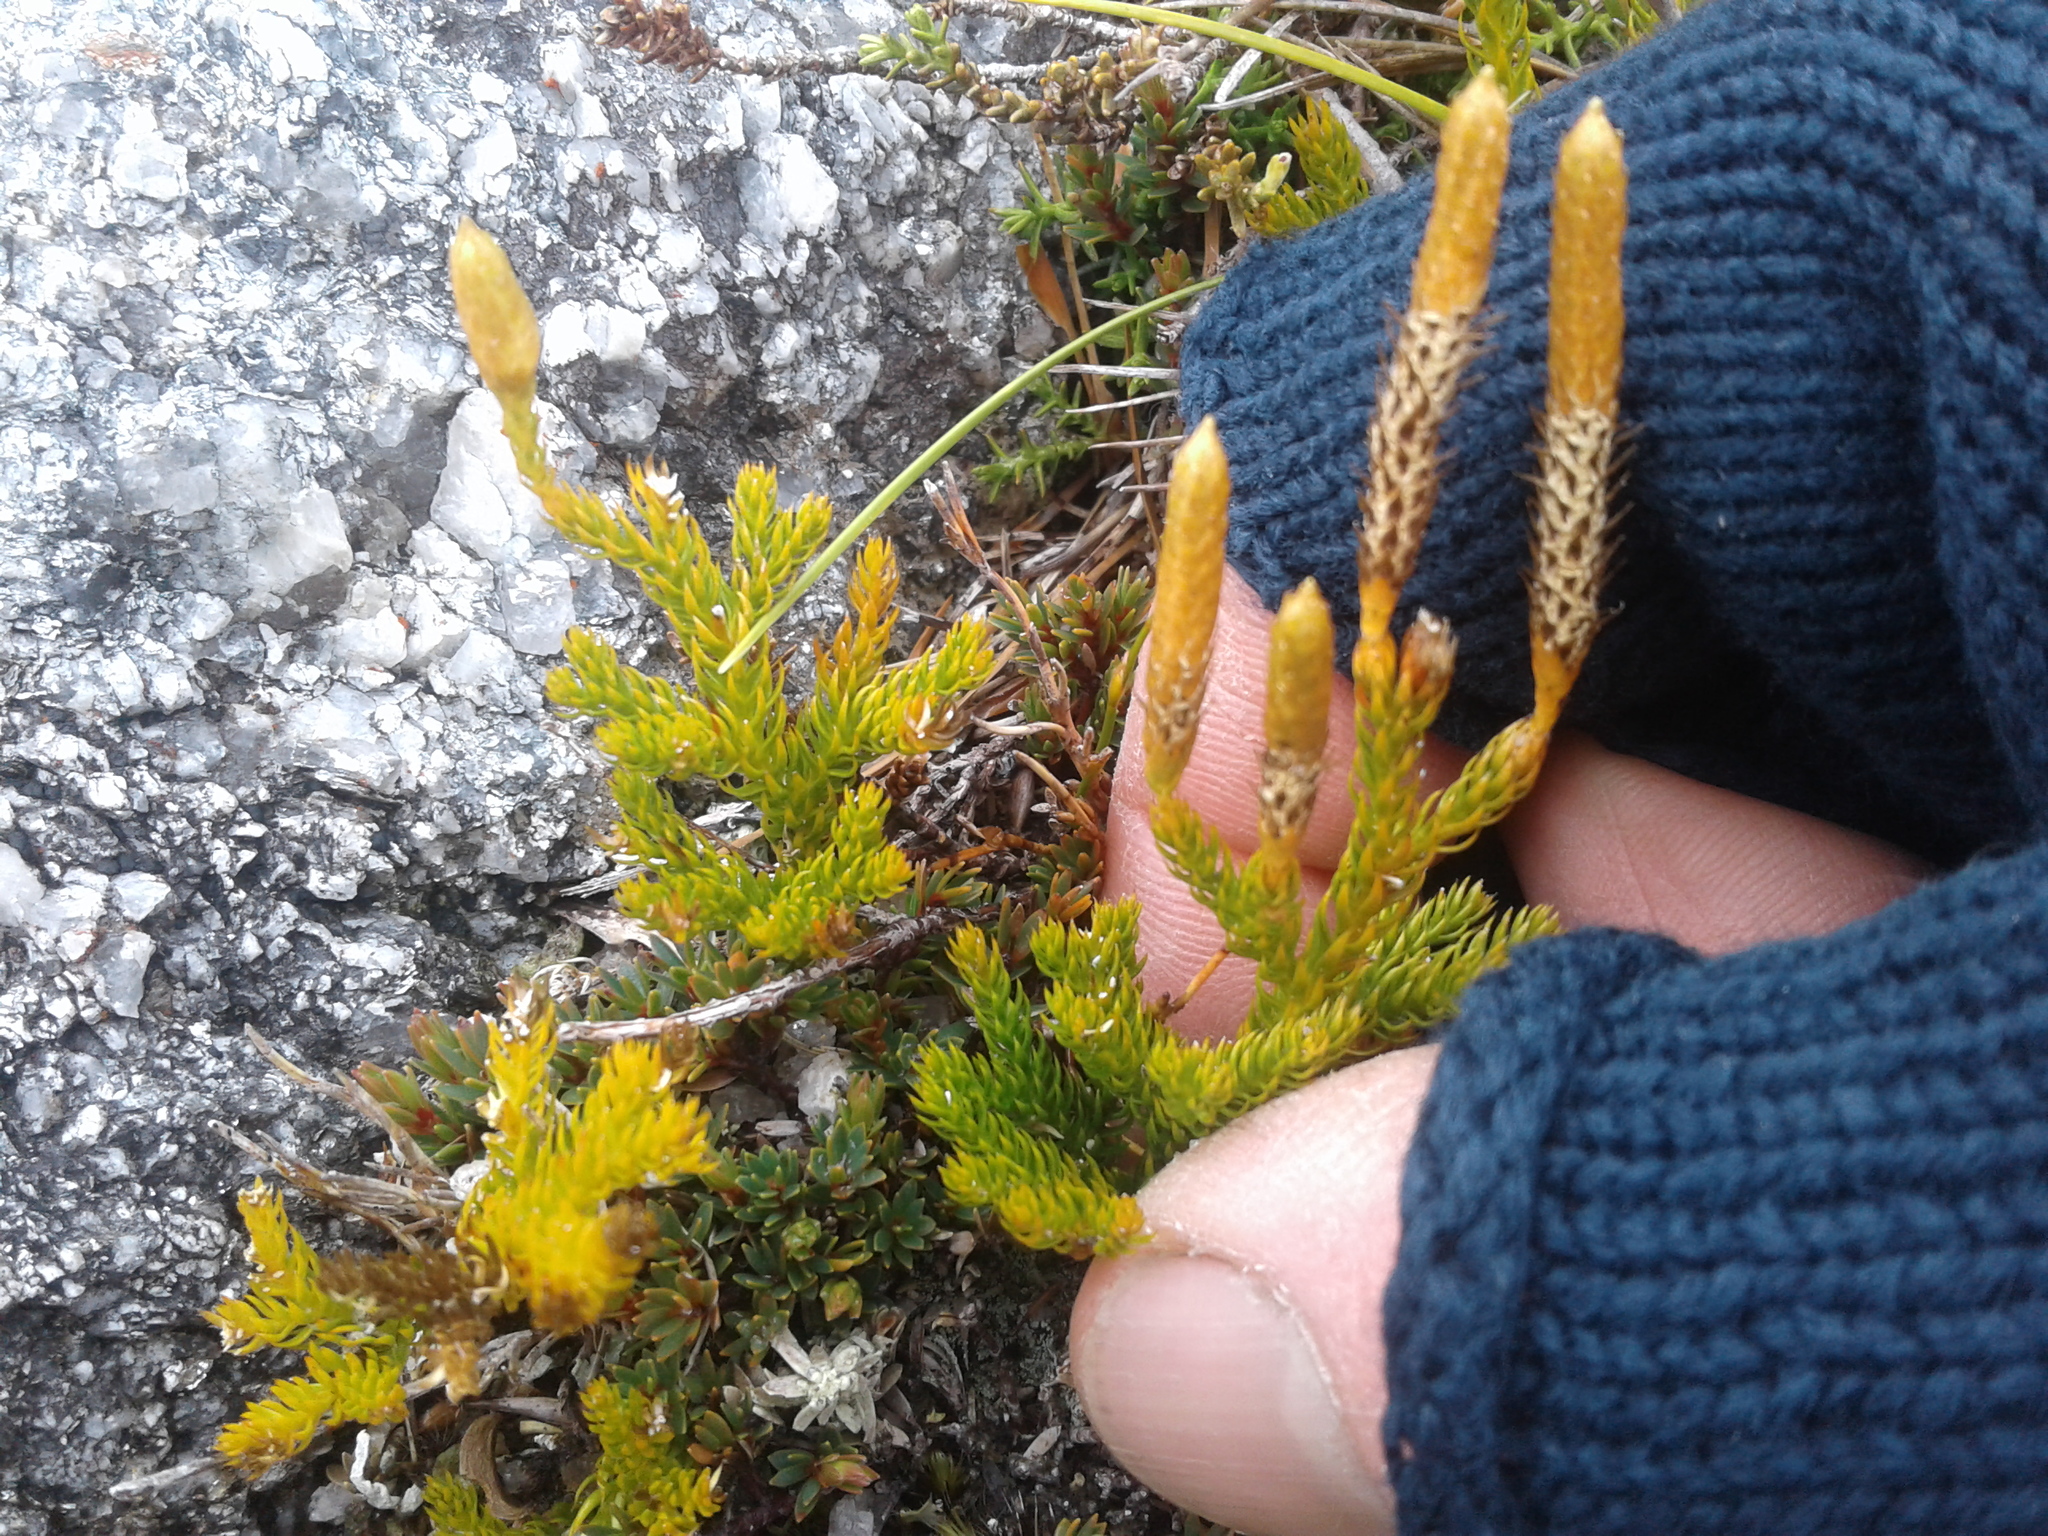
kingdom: Plantae
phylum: Tracheophyta
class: Lycopodiopsida
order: Lycopodiales
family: Lycopodiaceae
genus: Austrolycopodium
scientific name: Austrolycopodium fastigiatum
